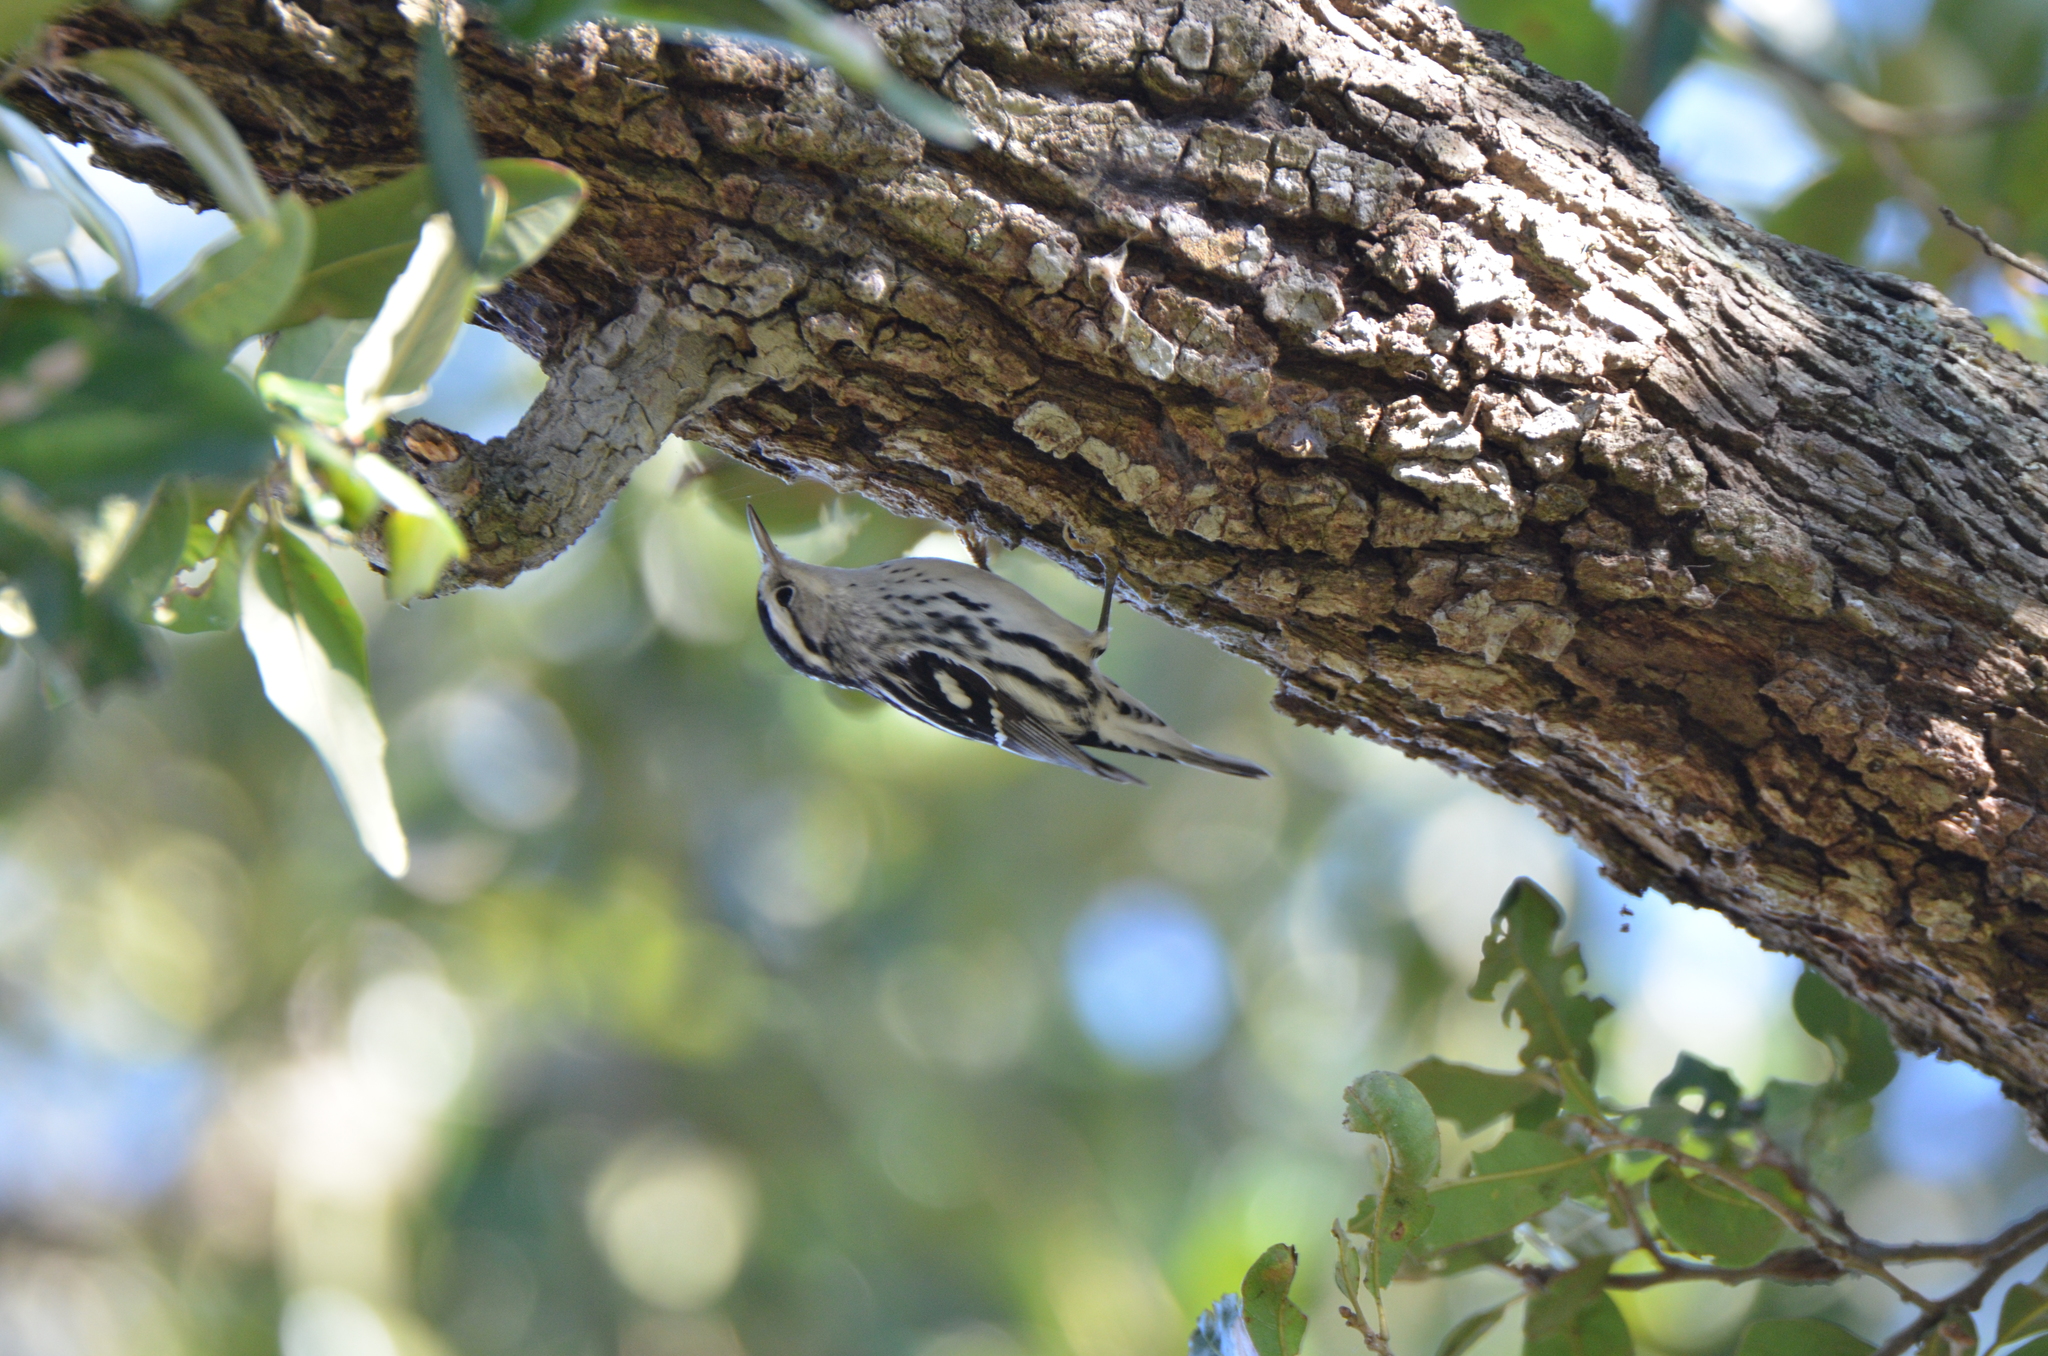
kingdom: Animalia
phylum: Chordata
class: Aves
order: Passeriformes
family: Parulidae
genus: Mniotilta
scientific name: Mniotilta varia
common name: Black-and-white warbler
